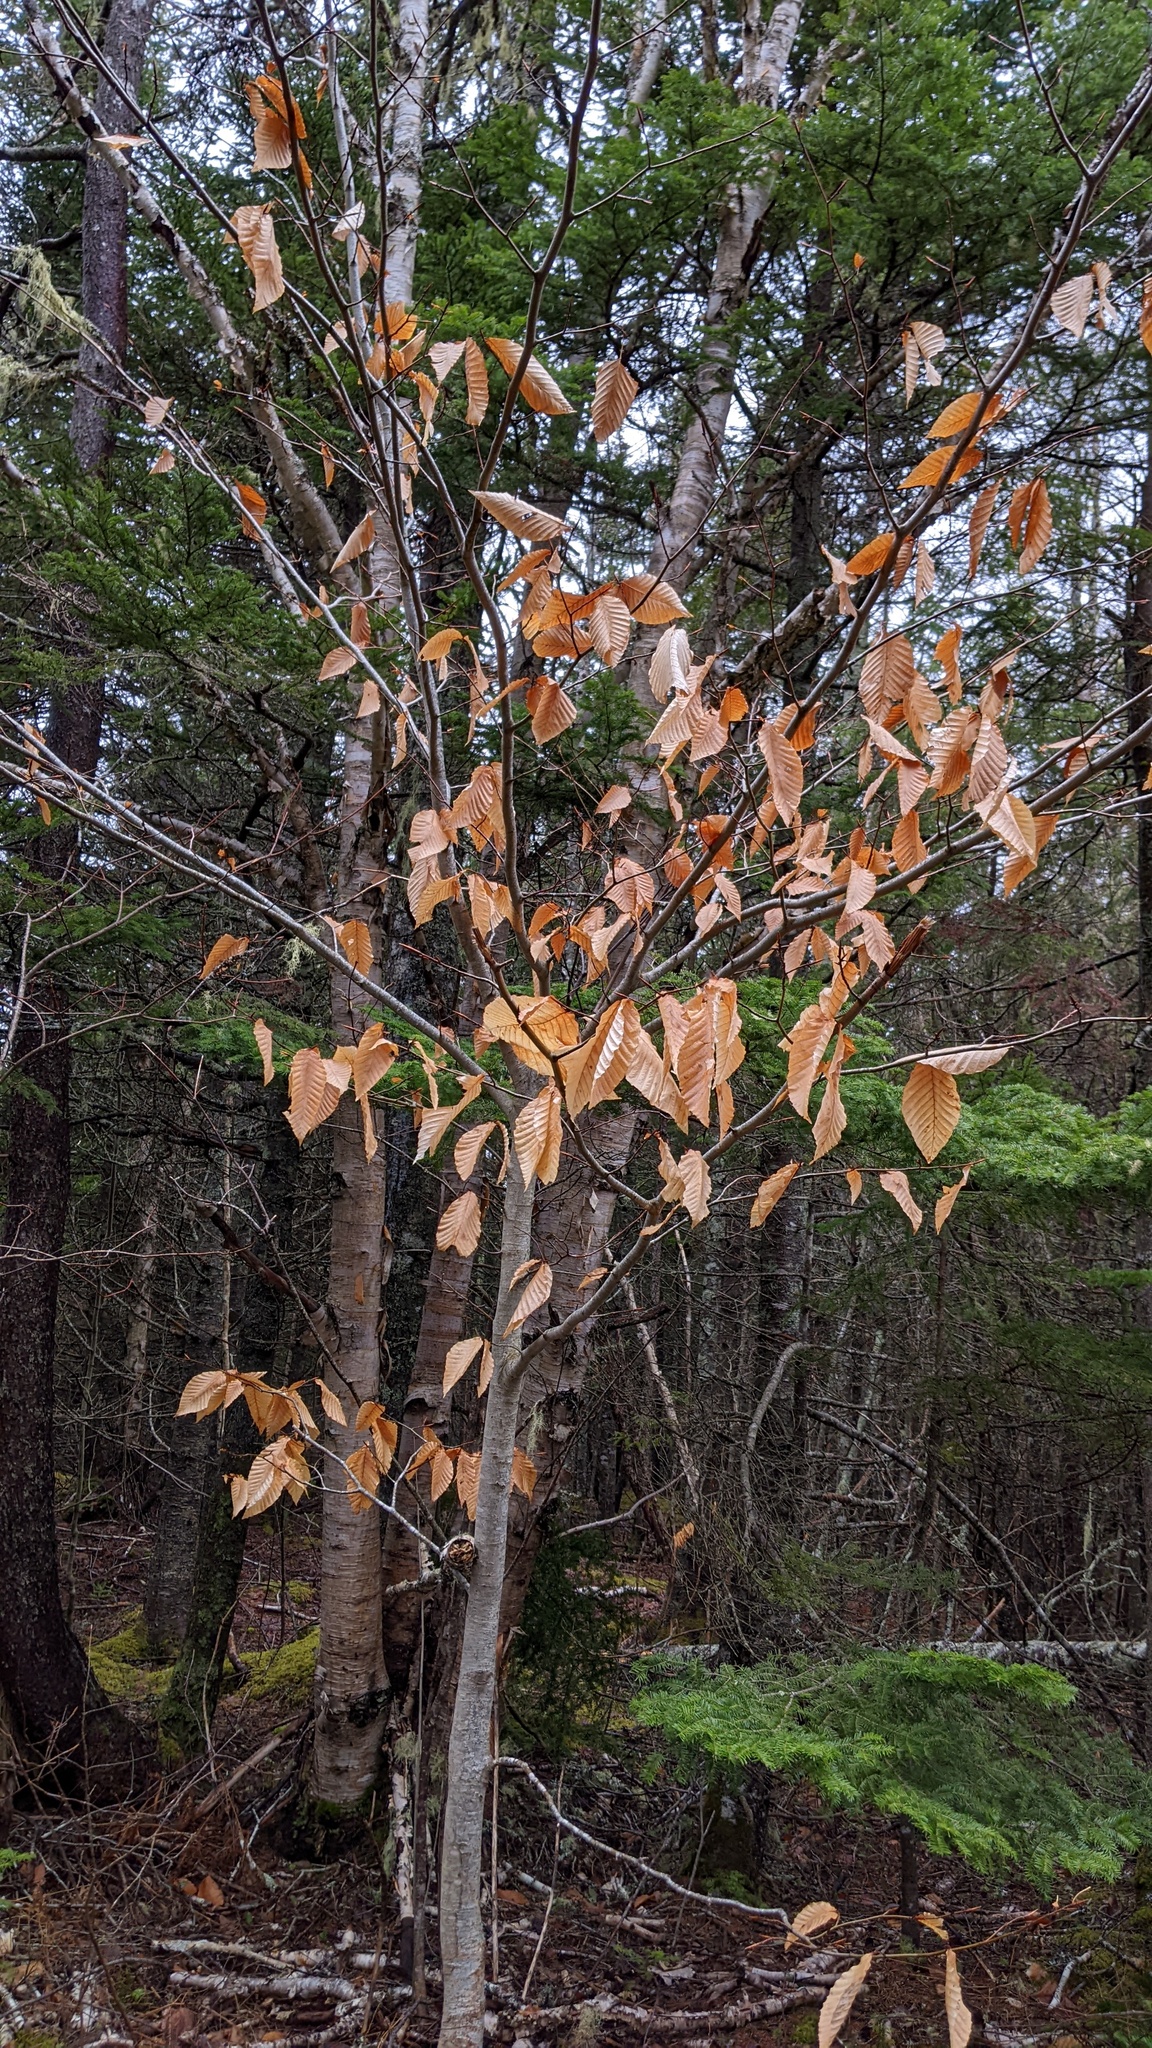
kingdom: Plantae
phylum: Tracheophyta
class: Magnoliopsida
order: Fagales
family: Fagaceae
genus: Fagus
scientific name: Fagus grandifolia
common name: American beech
